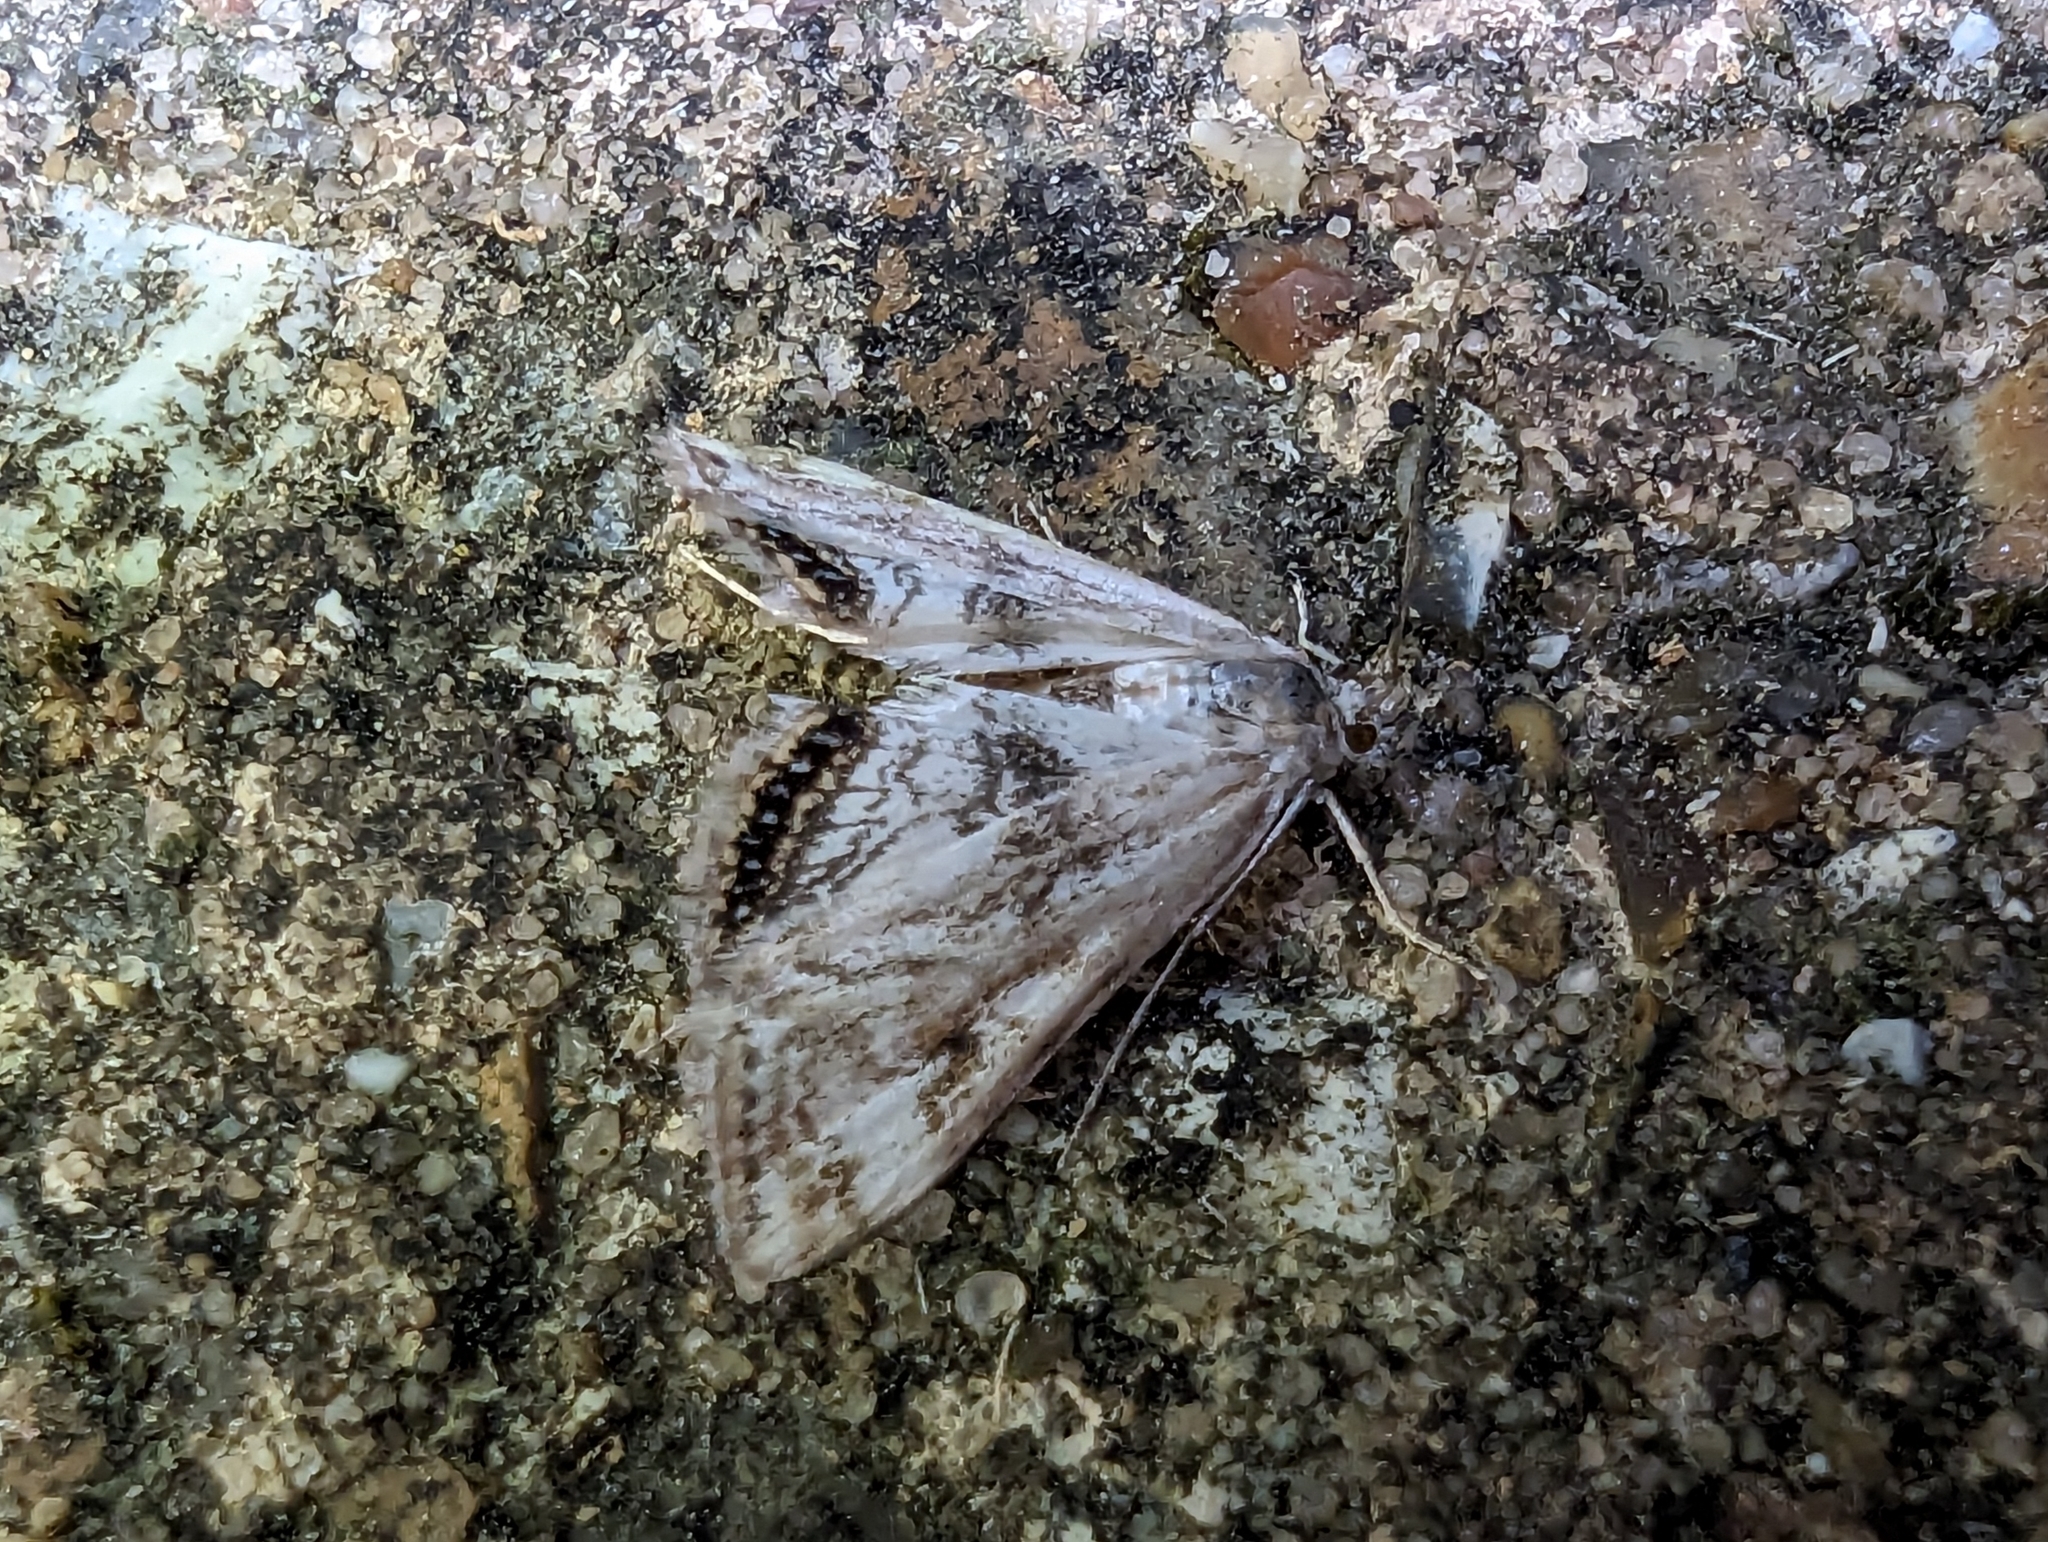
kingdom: Animalia
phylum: Arthropoda
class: Insecta
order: Lepidoptera
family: Crambidae
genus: Cataclysta
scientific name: Cataclysta lemnata
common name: Small china-mark
